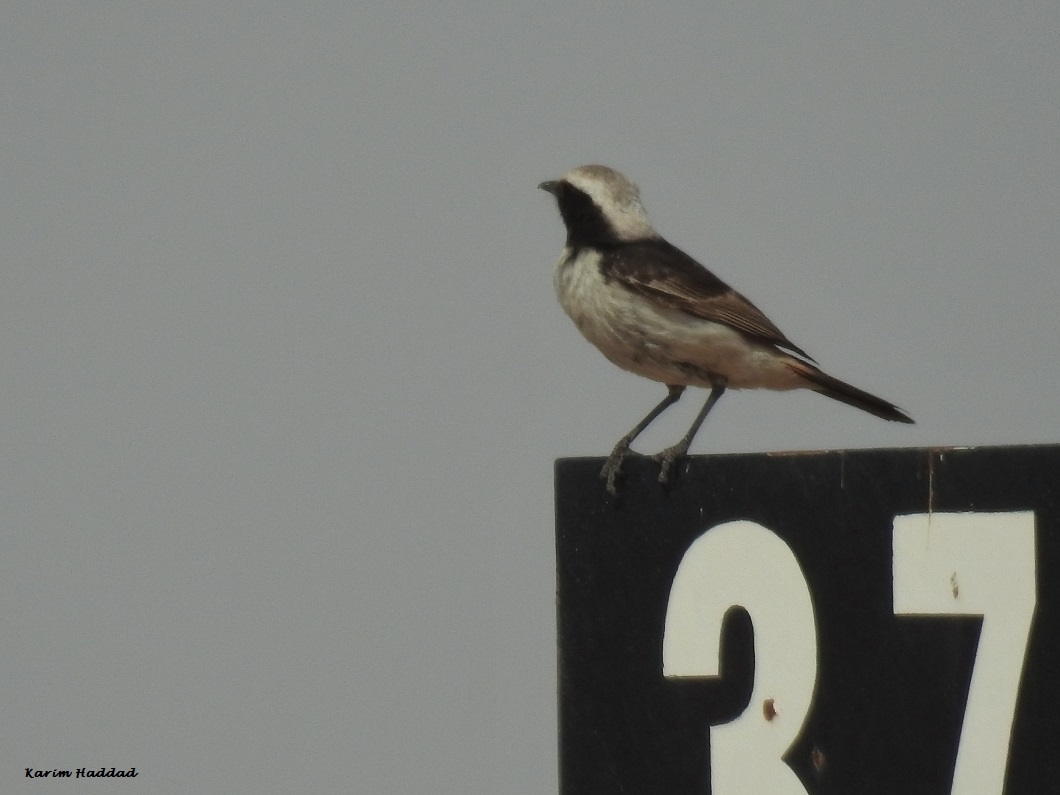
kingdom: Animalia
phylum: Chordata
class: Aves
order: Passeriformes
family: Muscicapidae
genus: Oenanthe
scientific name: Oenanthe moesta
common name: Red-rumped wheatear
